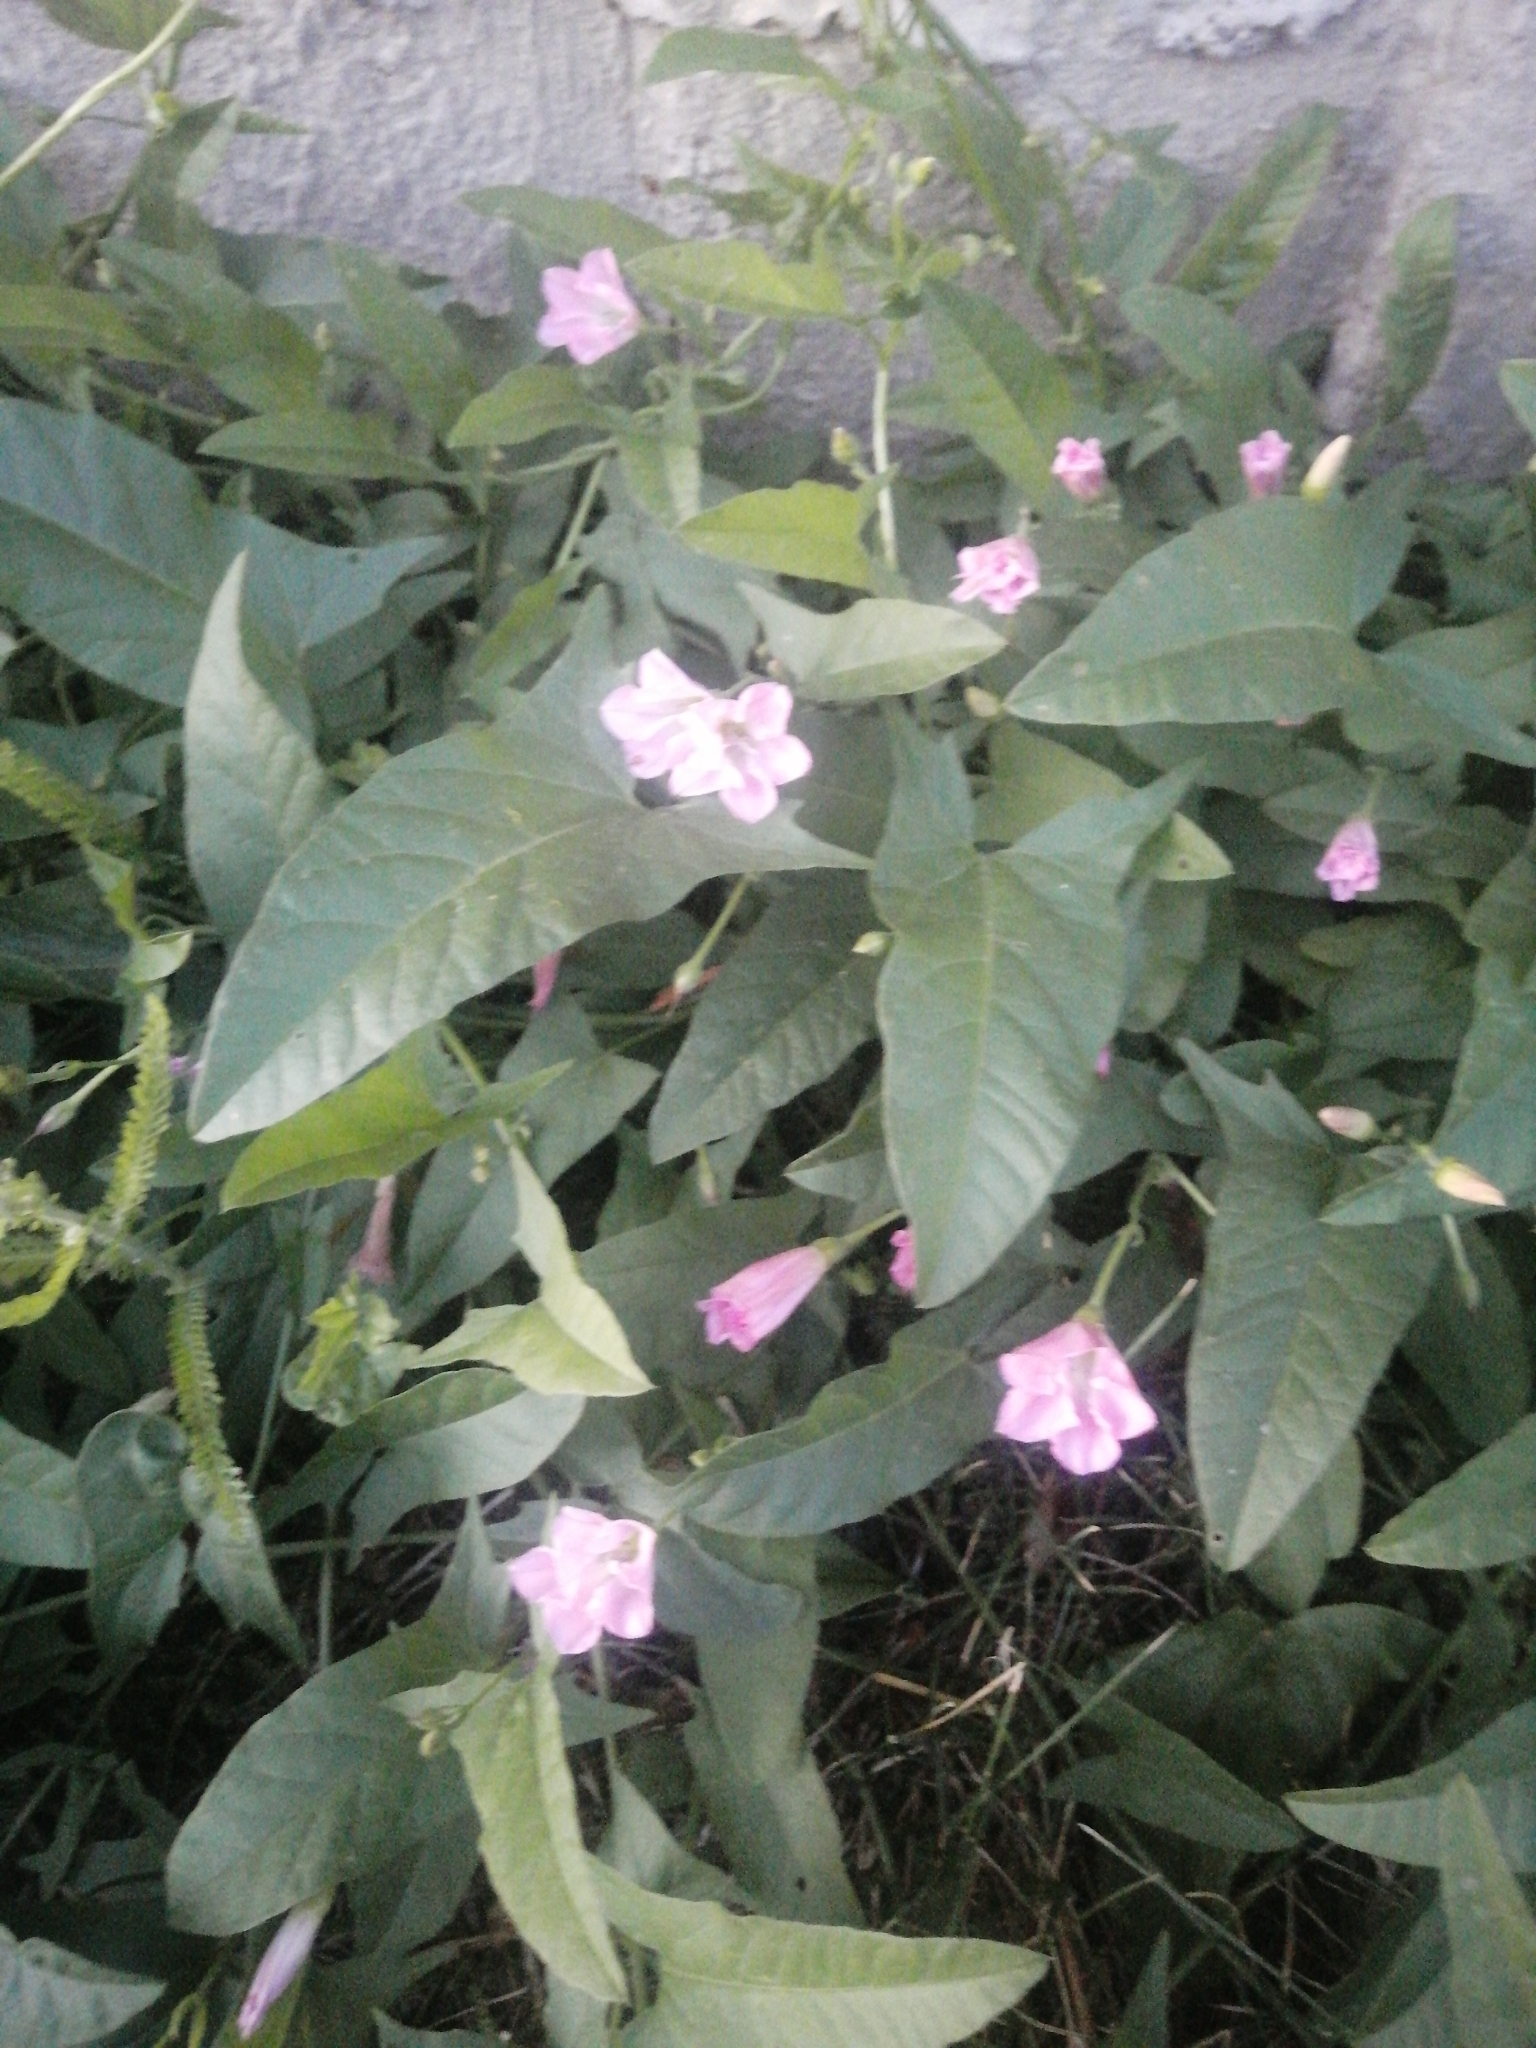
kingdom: Plantae
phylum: Tracheophyta
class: Magnoliopsida
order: Solanales
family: Convolvulaceae
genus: Convolvulus
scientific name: Convolvulus arvensis
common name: Field bindweed
